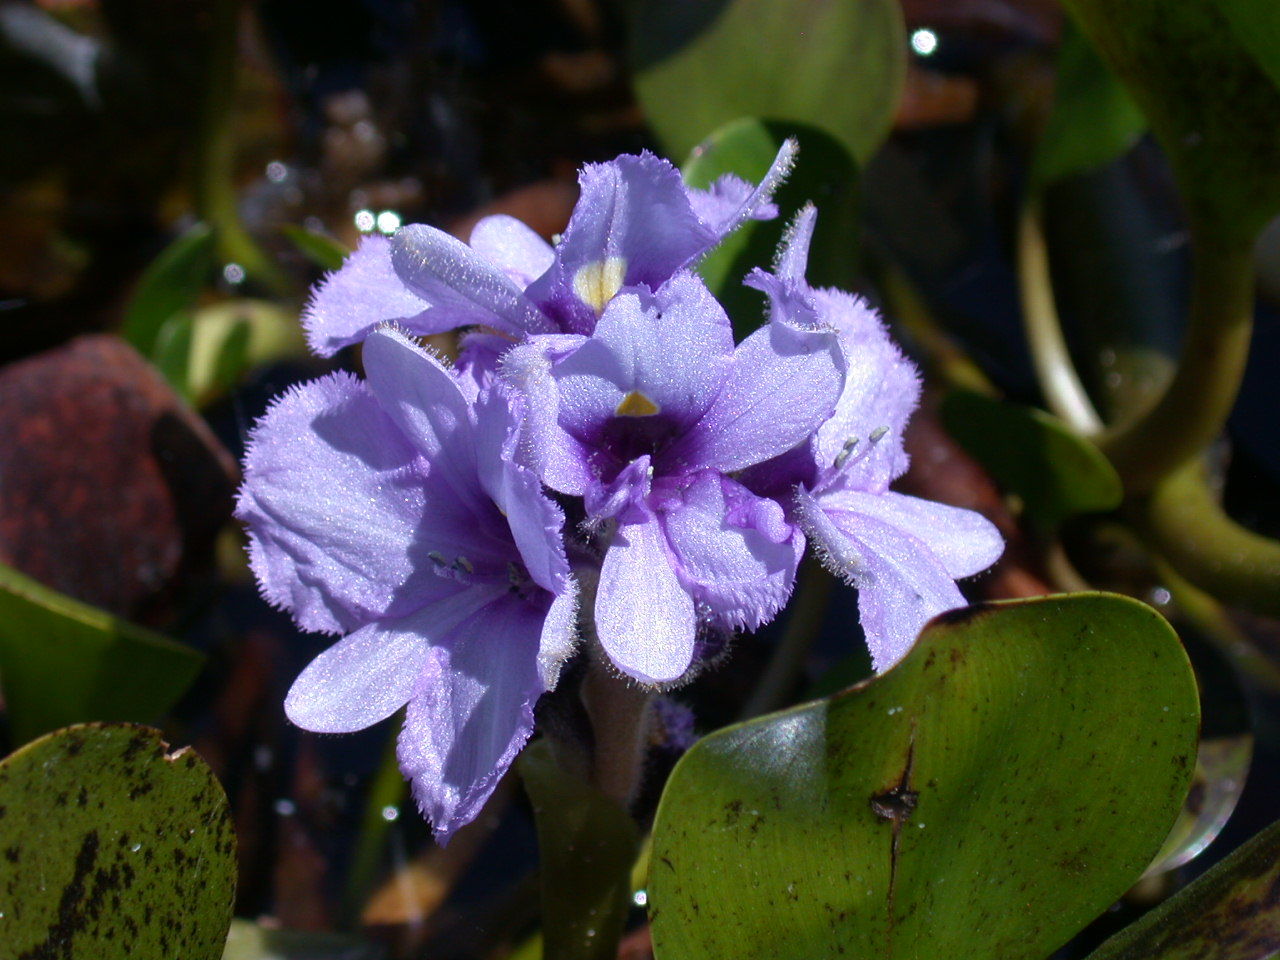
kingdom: Plantae
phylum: Tracheophyta
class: Liliopsida
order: Commelinales
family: Pontederiaceae
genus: Pontederia
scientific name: Pontederia azurea
